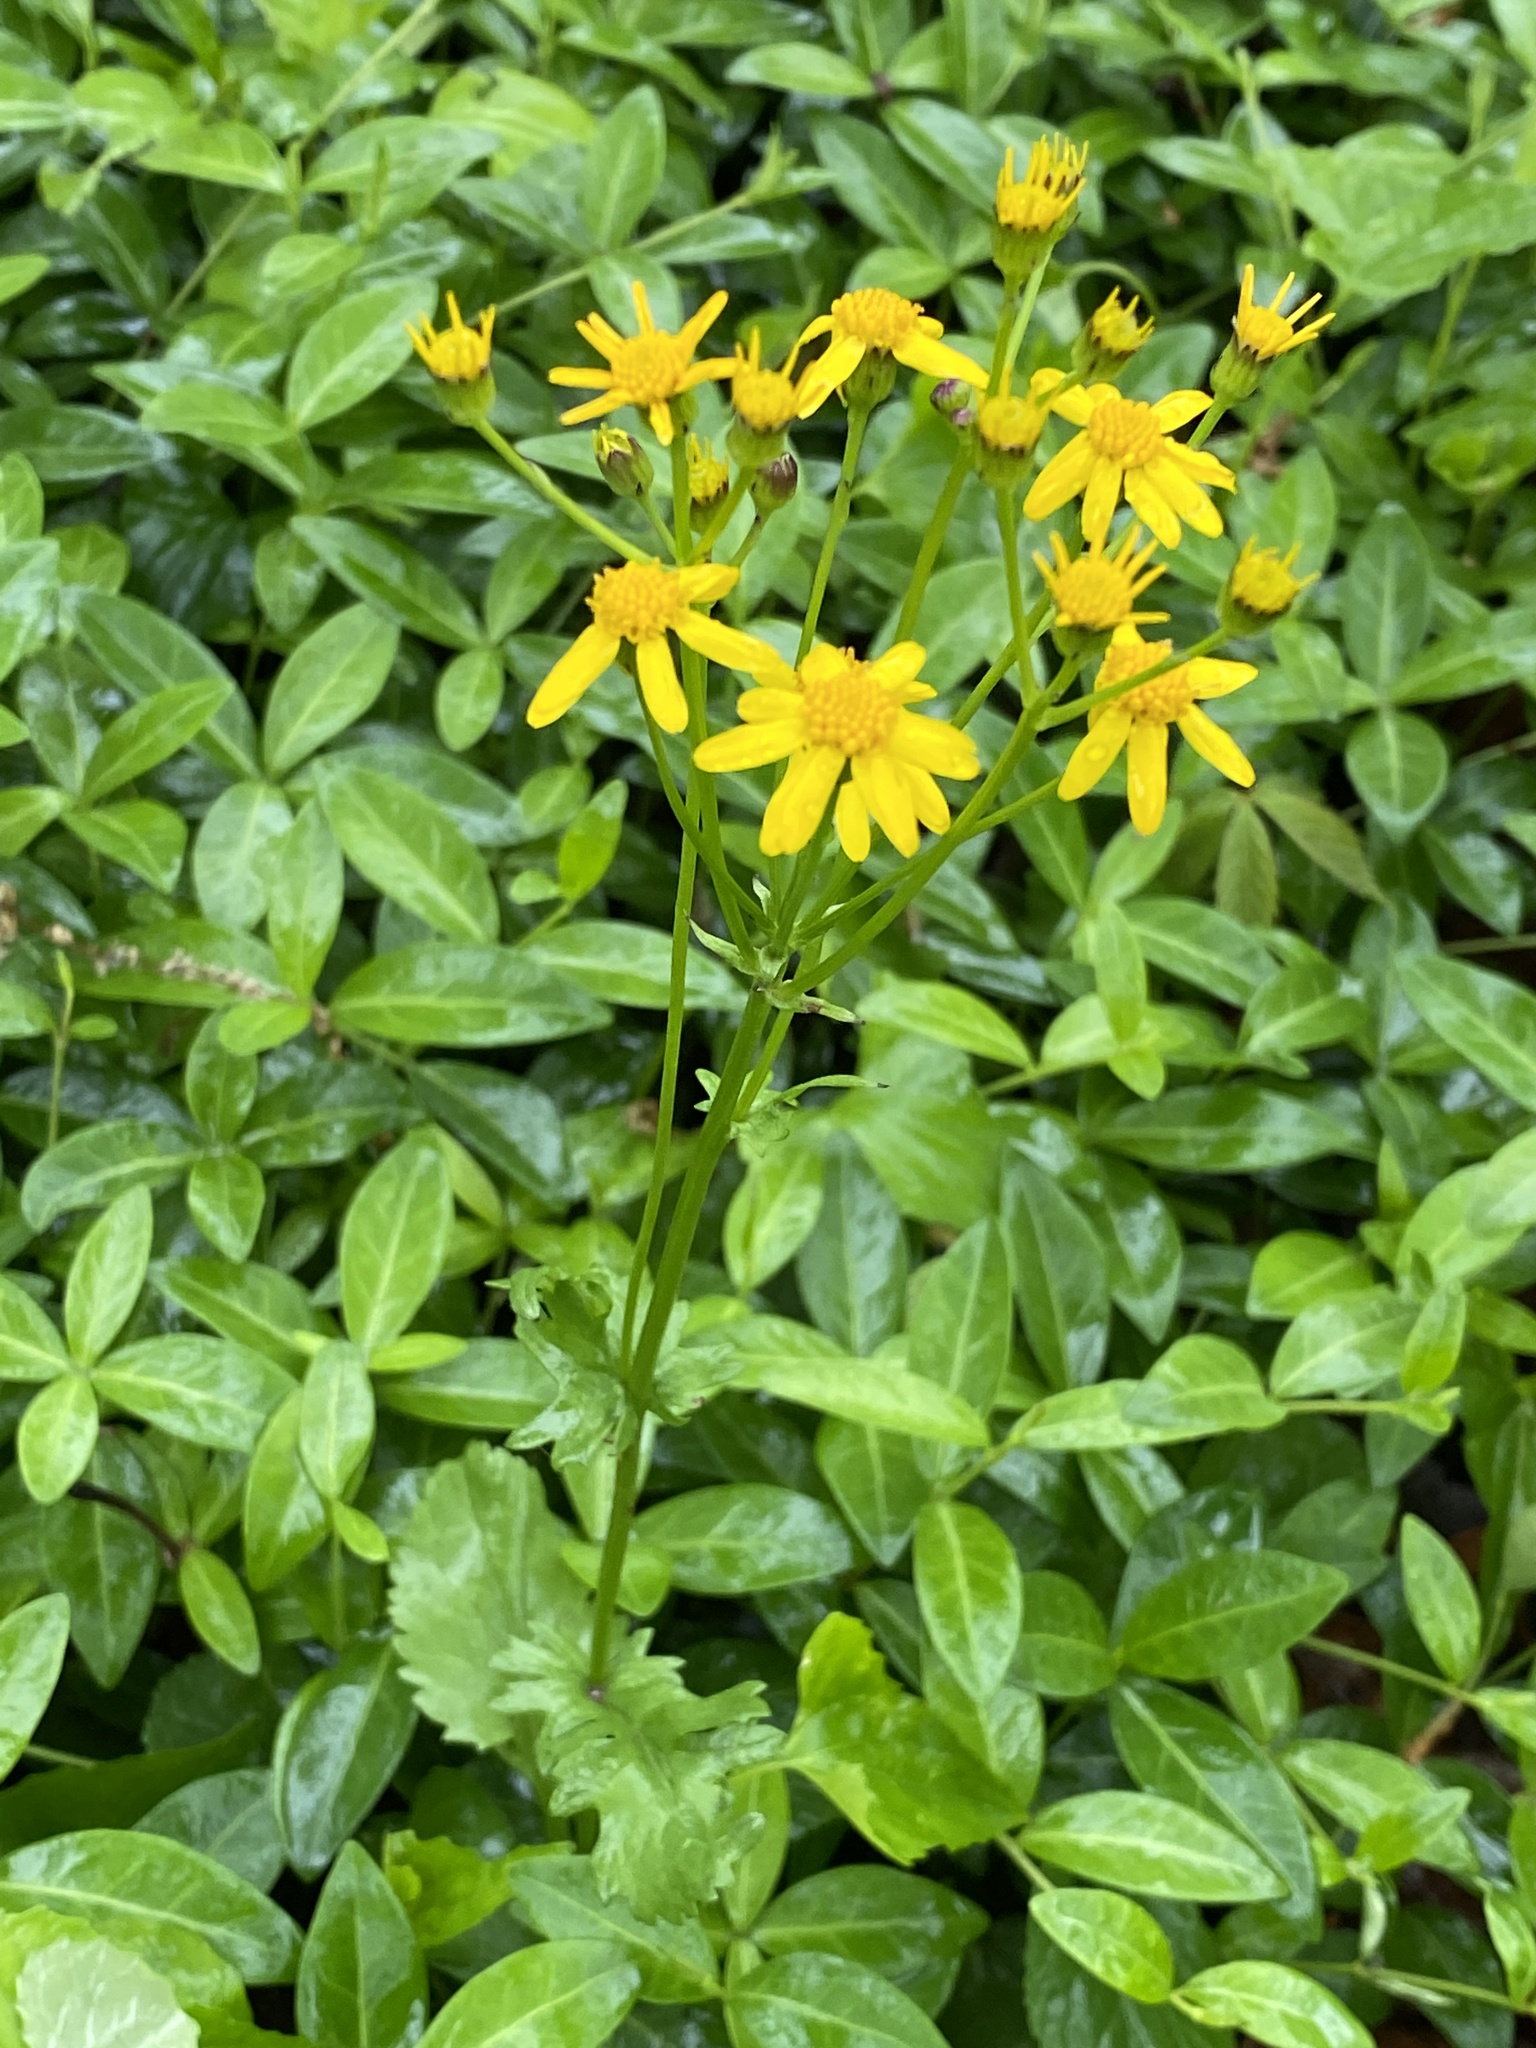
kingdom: Plantae
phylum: Tracheophyta
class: Magnoliopsida
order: Asterales
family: Asteraceae
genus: Packera
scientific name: Packera obovata
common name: Round-leaf ragwort
